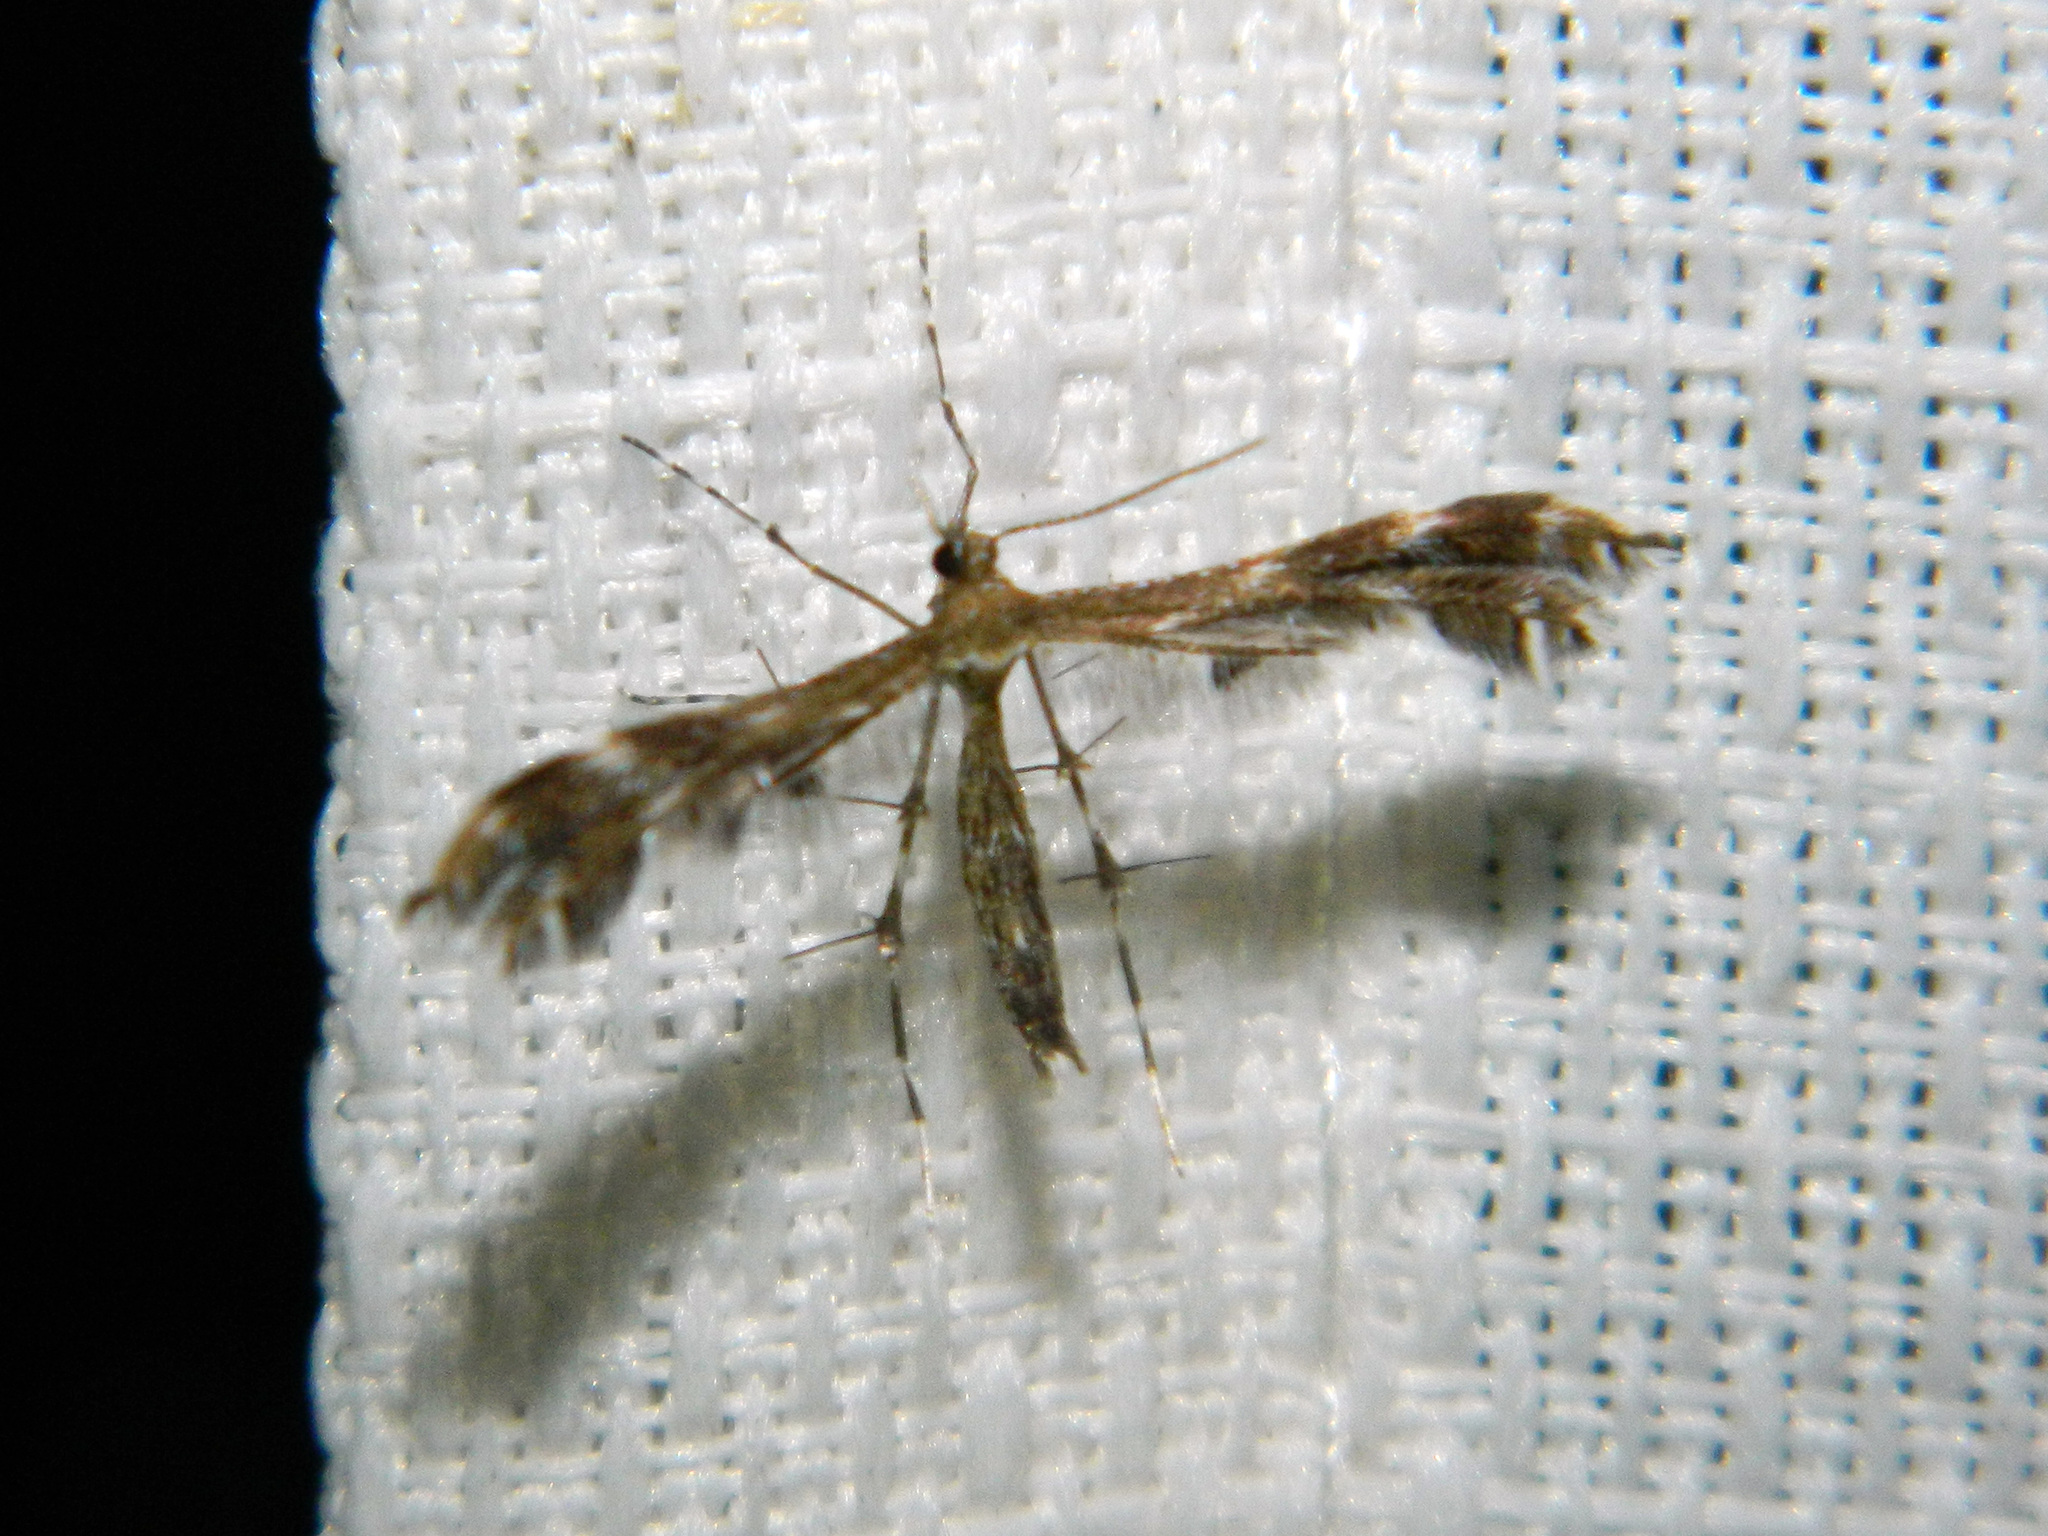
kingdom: Animalia
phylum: Arthropoda
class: Insecta
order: Lepidoptera
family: Pterophoridae
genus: Dejongia
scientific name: Dejongia lobidactylus
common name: Lobed plume moth
